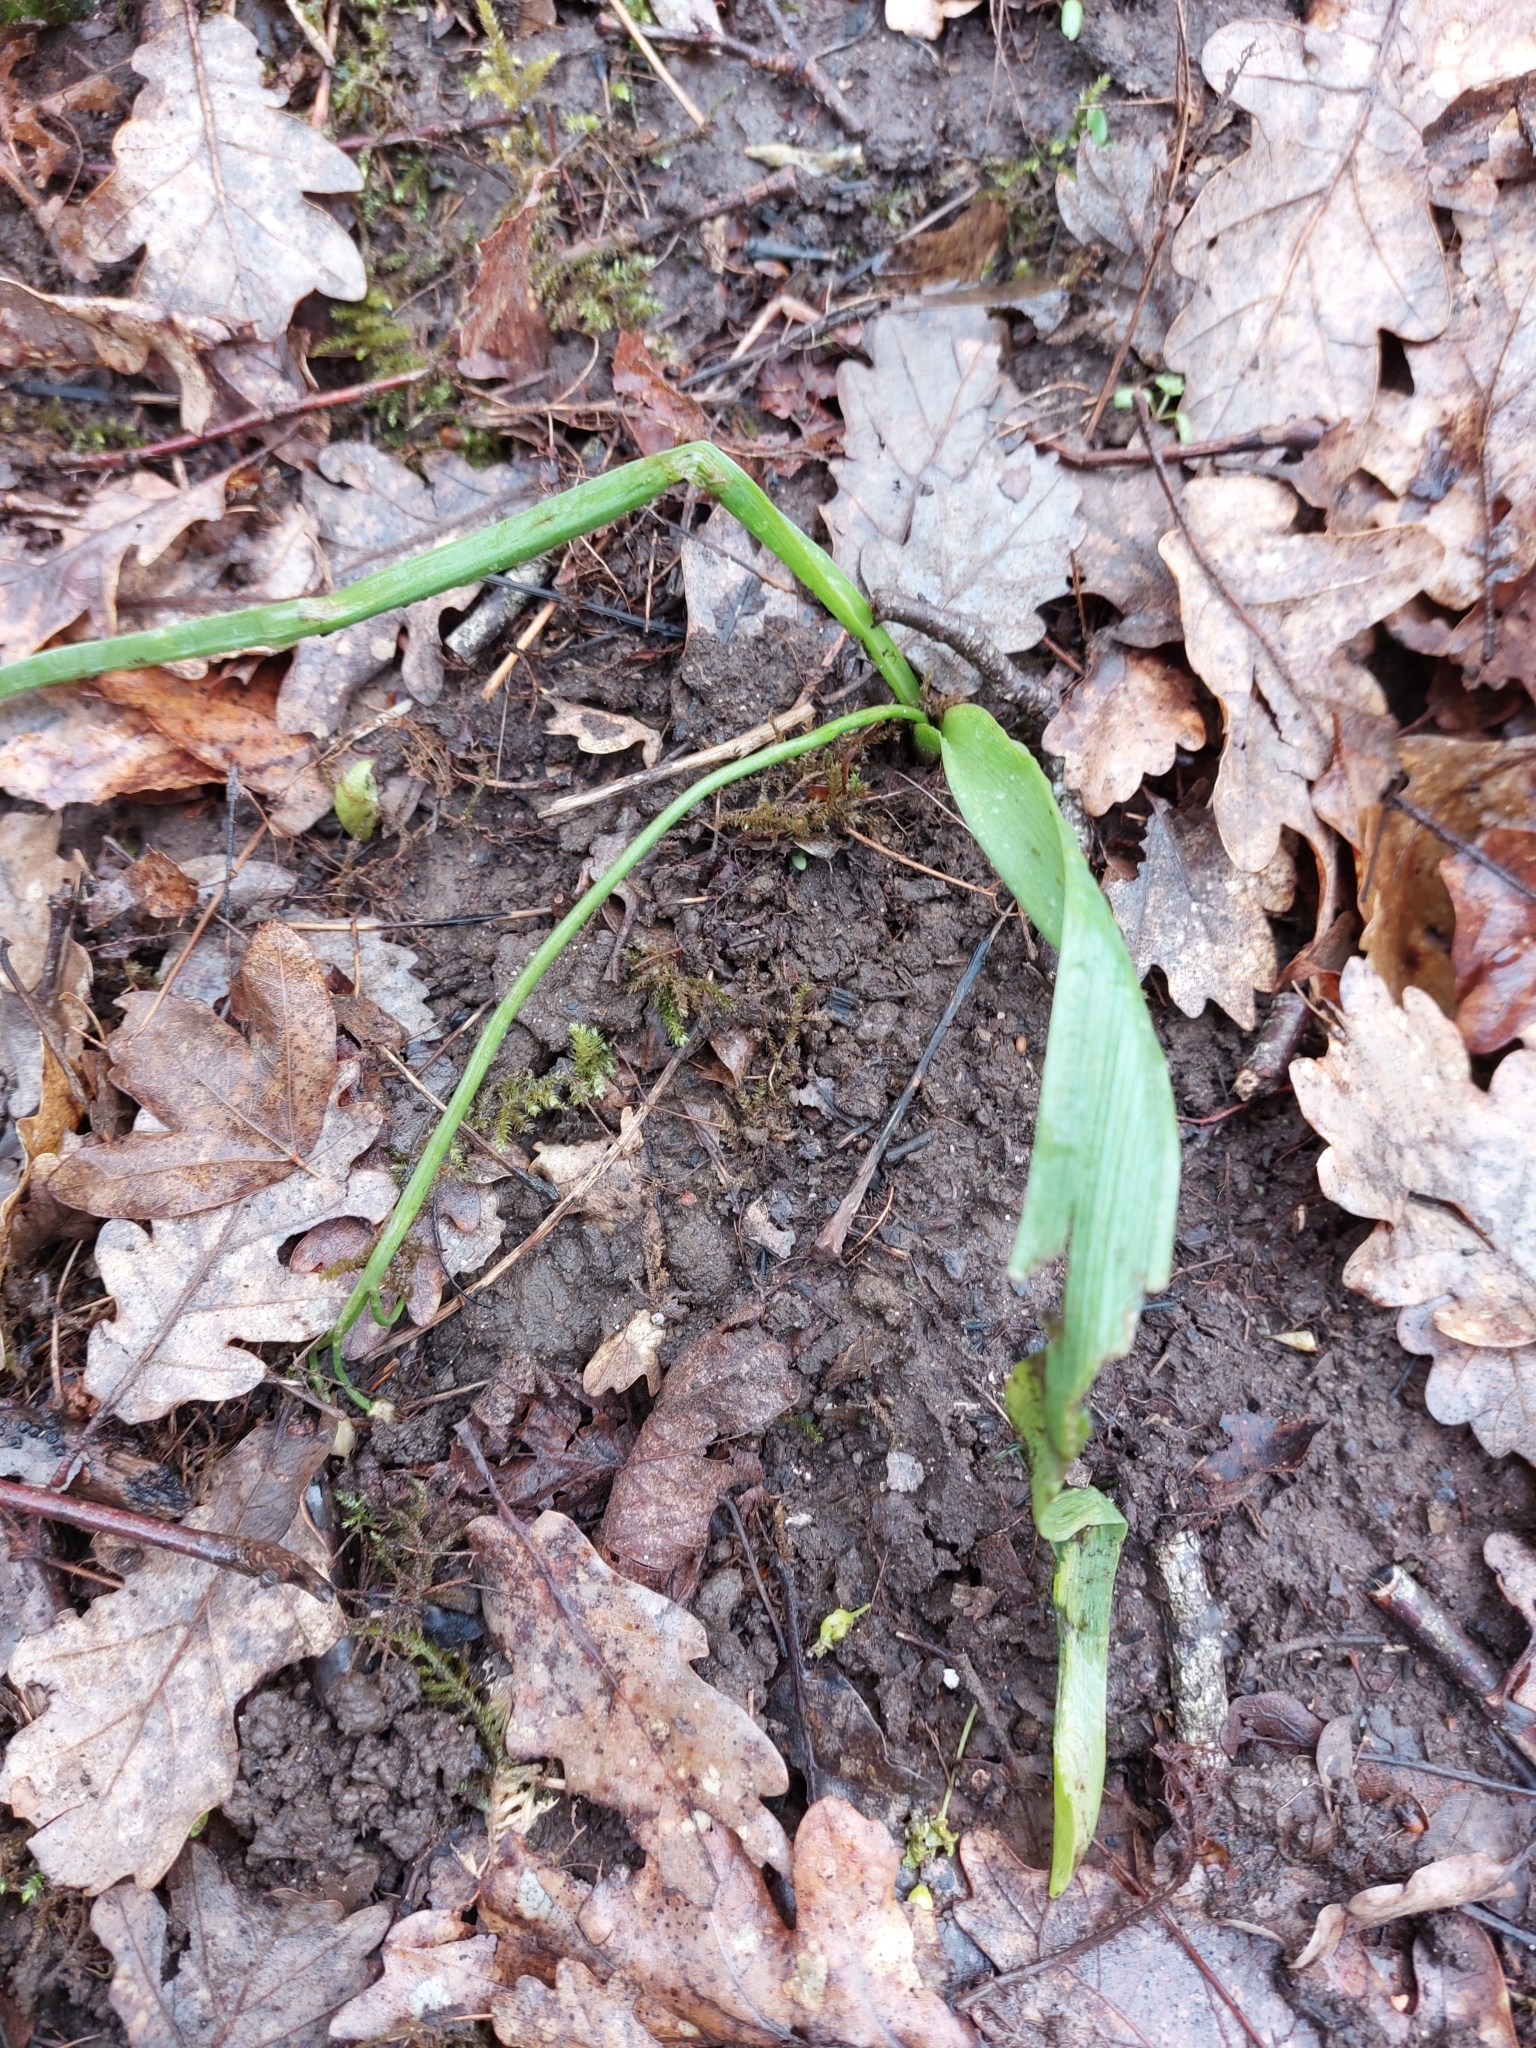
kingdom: Plantae
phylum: Tracheophyta
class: Liliopsida
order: Asparagales
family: Asparagaceae
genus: Scilla
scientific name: Scilla bifolia
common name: Alpine squill
